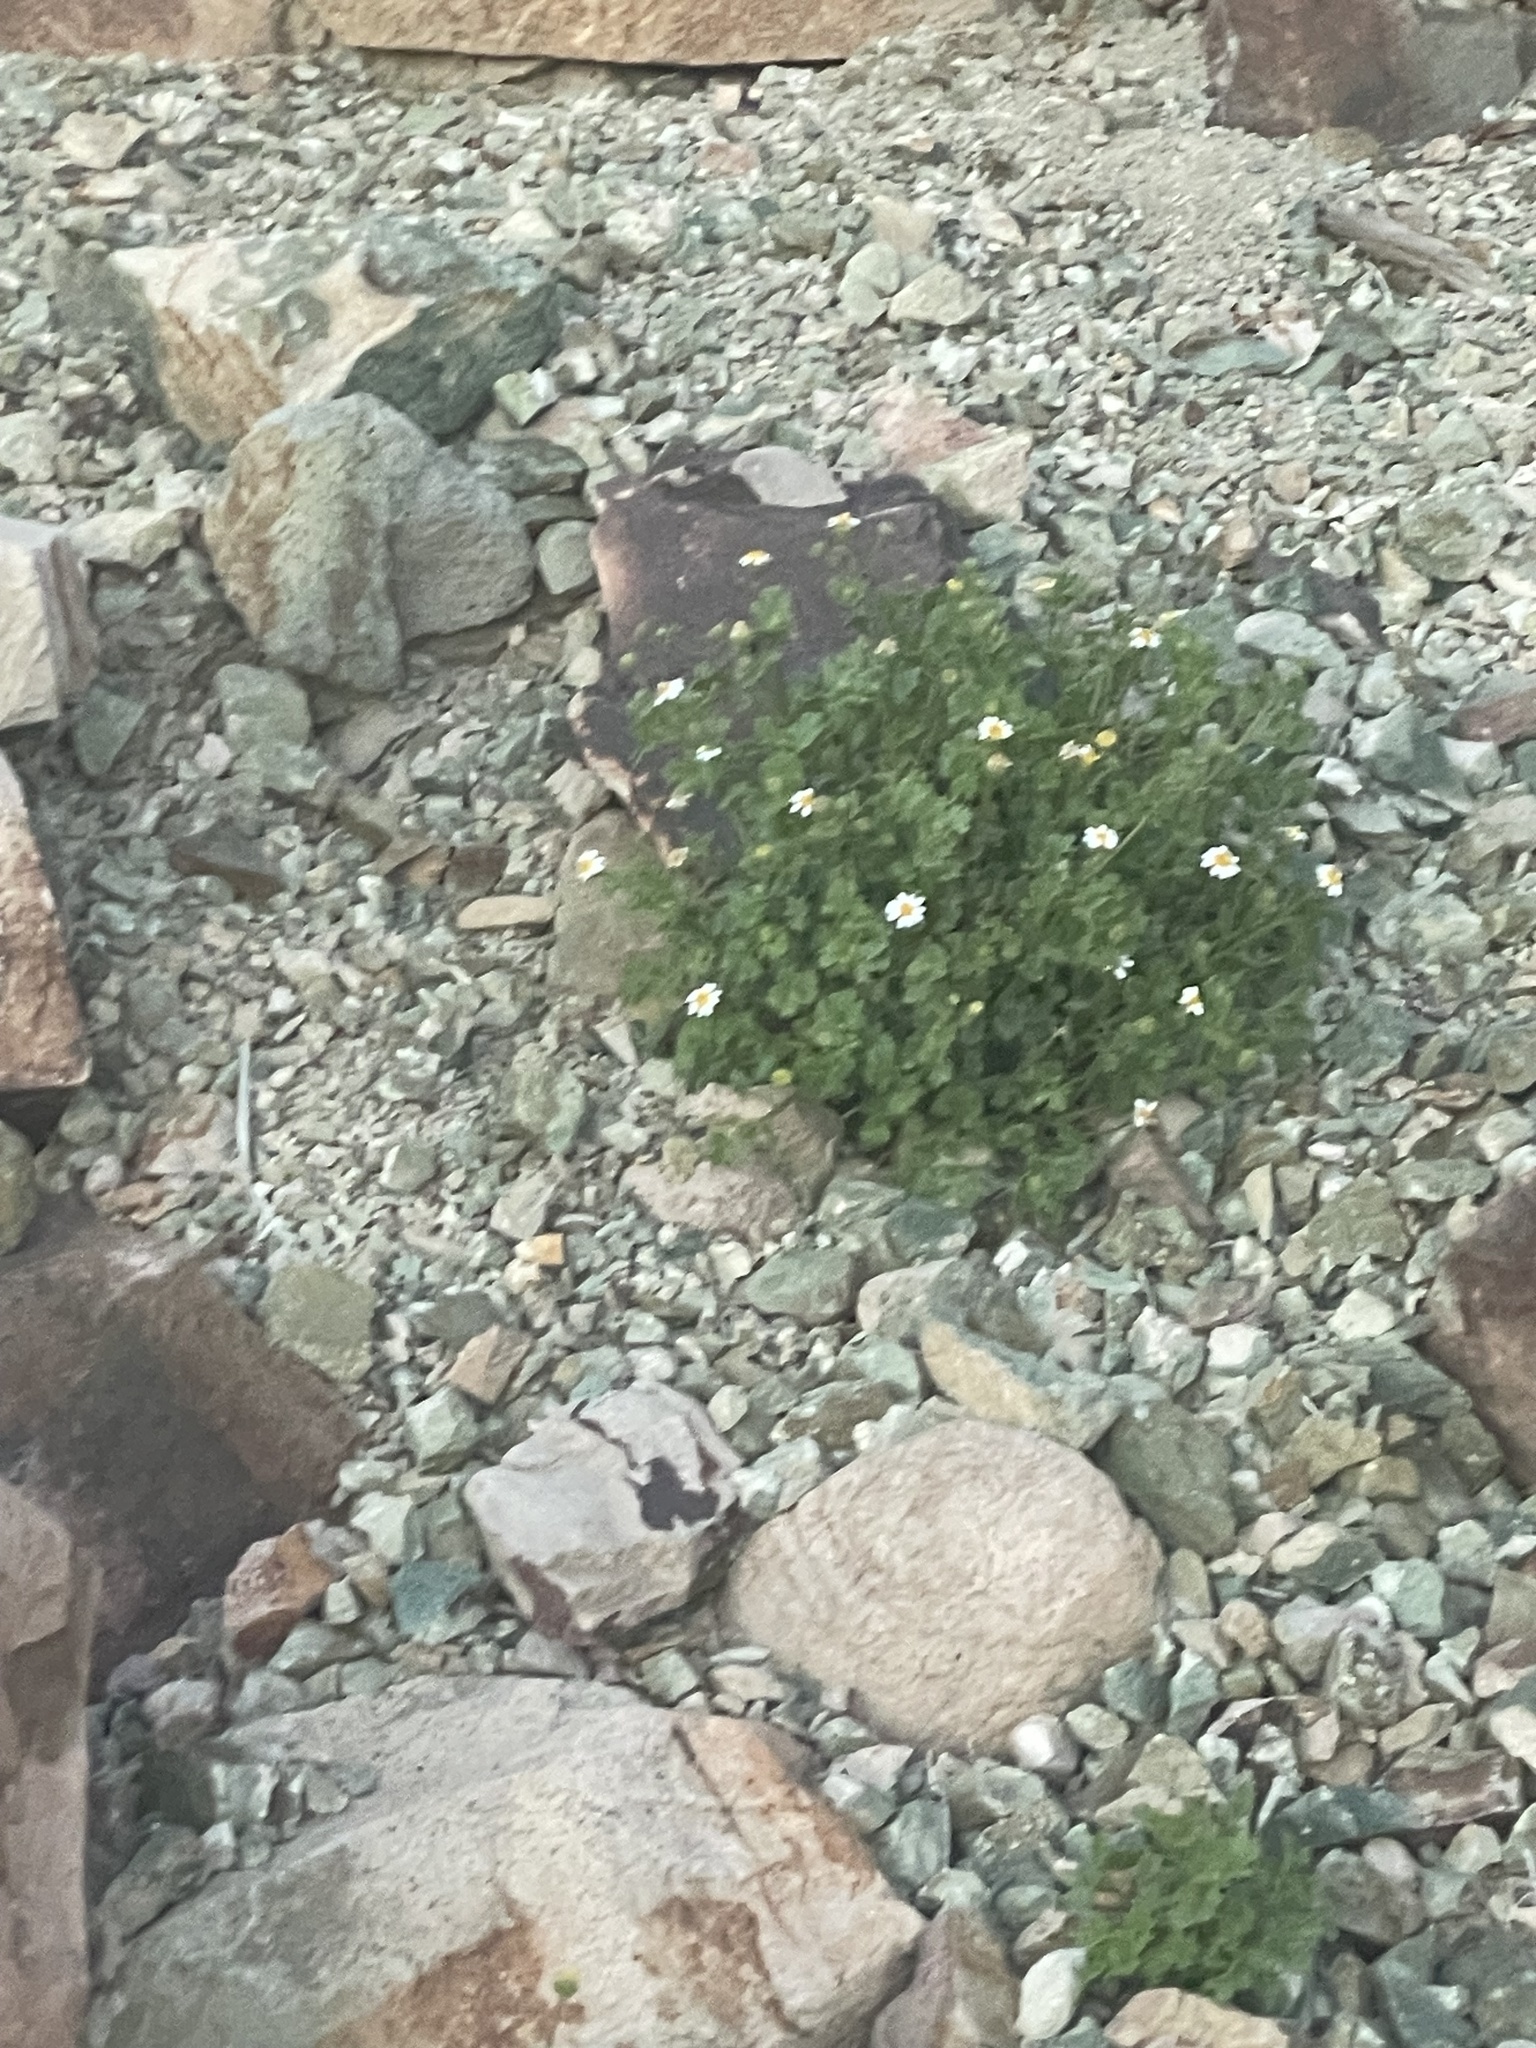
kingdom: Plantae
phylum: Tracheophyta
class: Magnoliopsida
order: Asterales
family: Asteraceae
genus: Laphamia
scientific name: Laphamia emoryi
